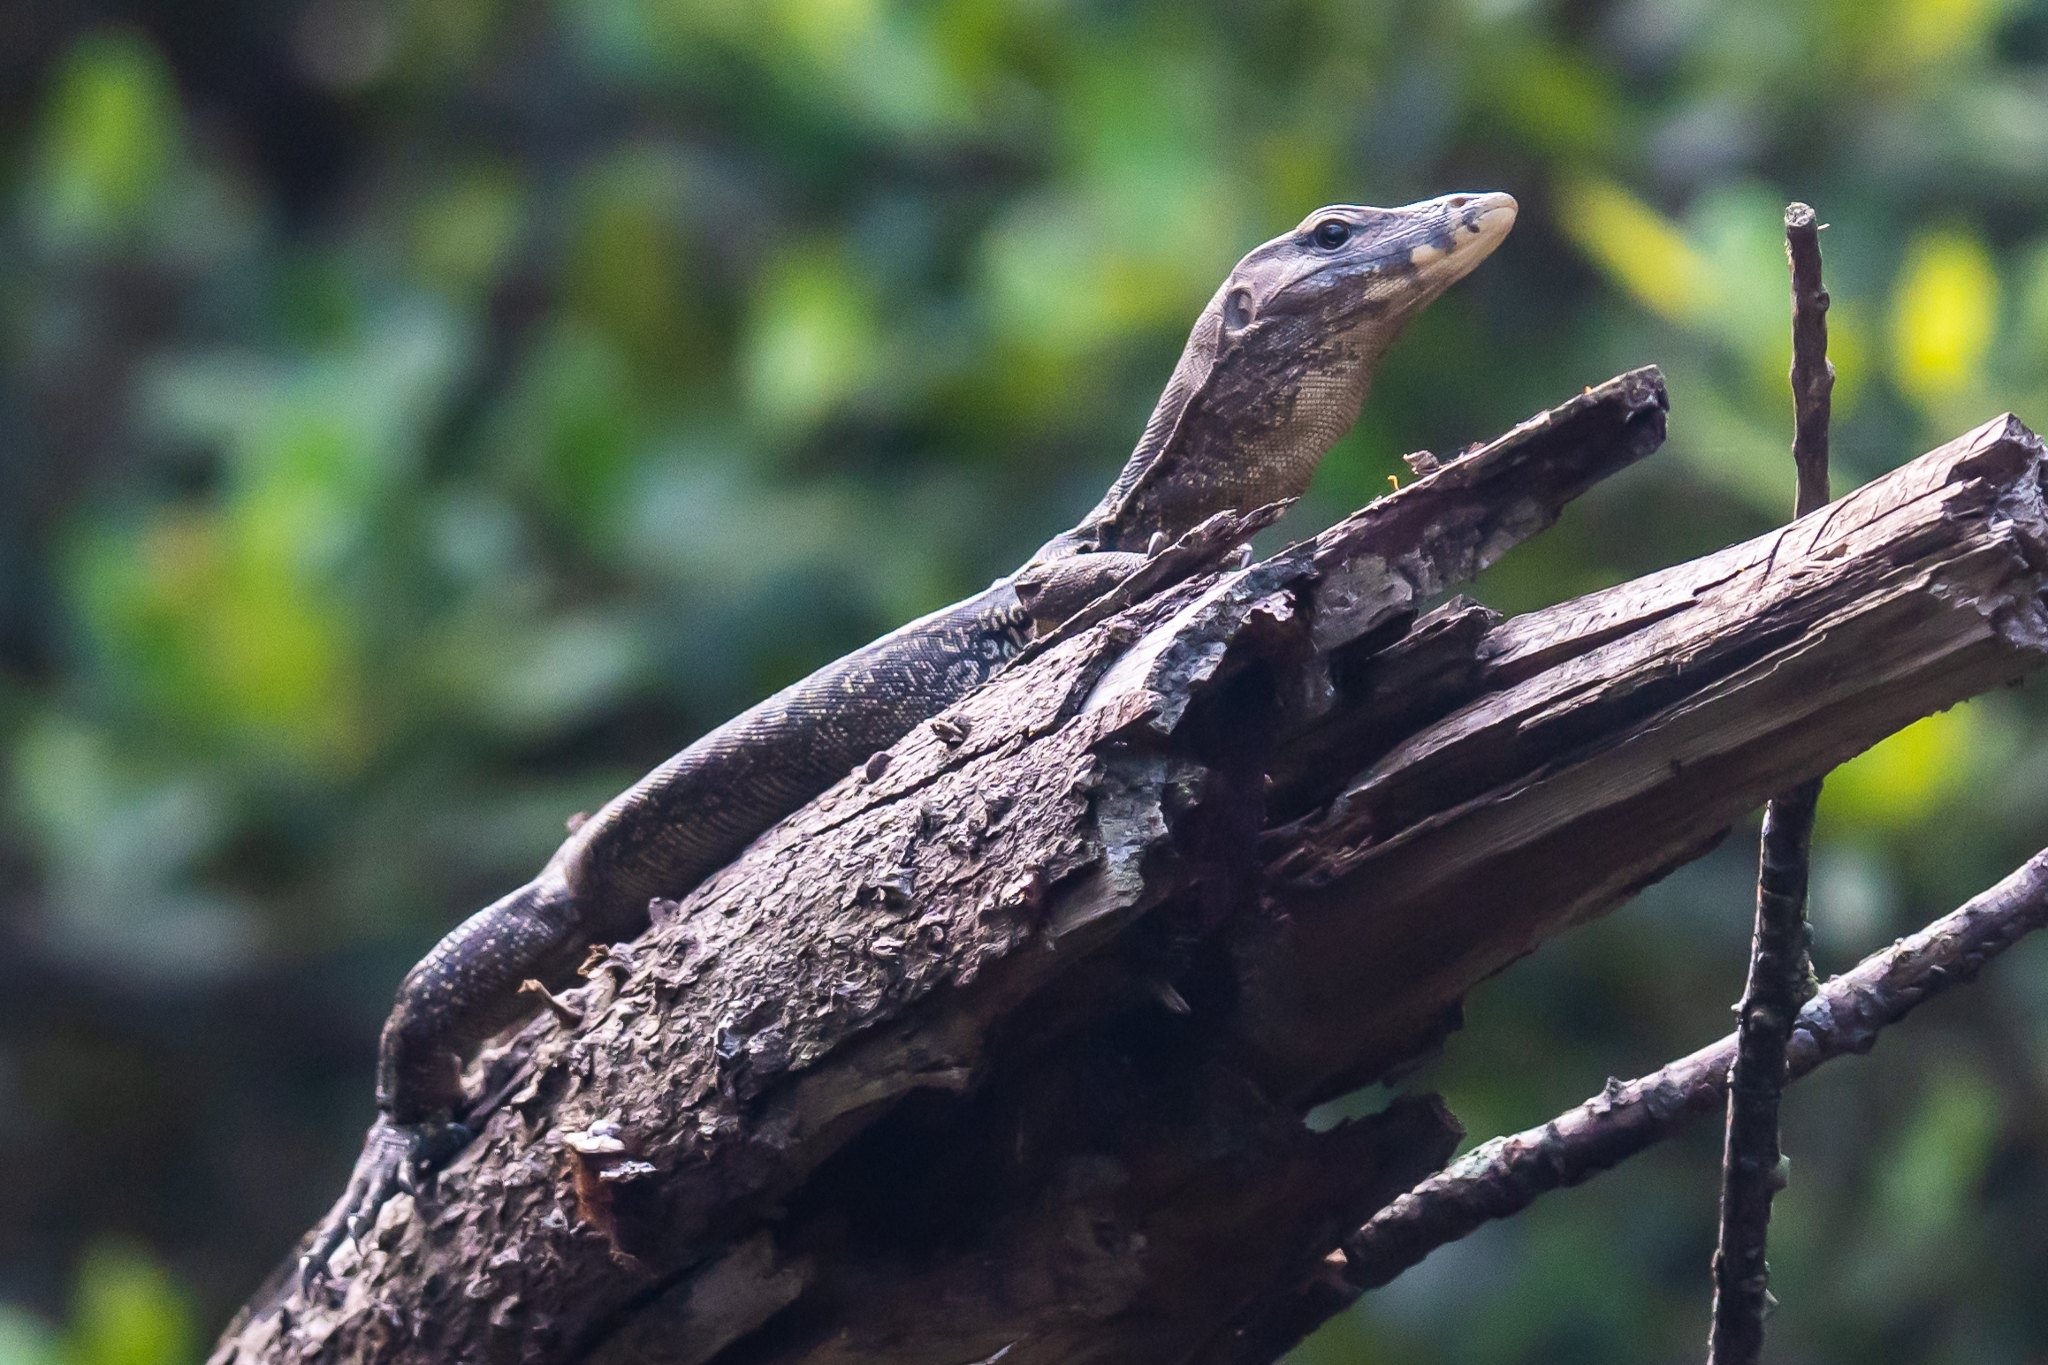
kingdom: Animalia
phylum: Chordata
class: Squamata
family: Varanidae
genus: Varanus
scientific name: Varanus salvator
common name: Common water monitor
